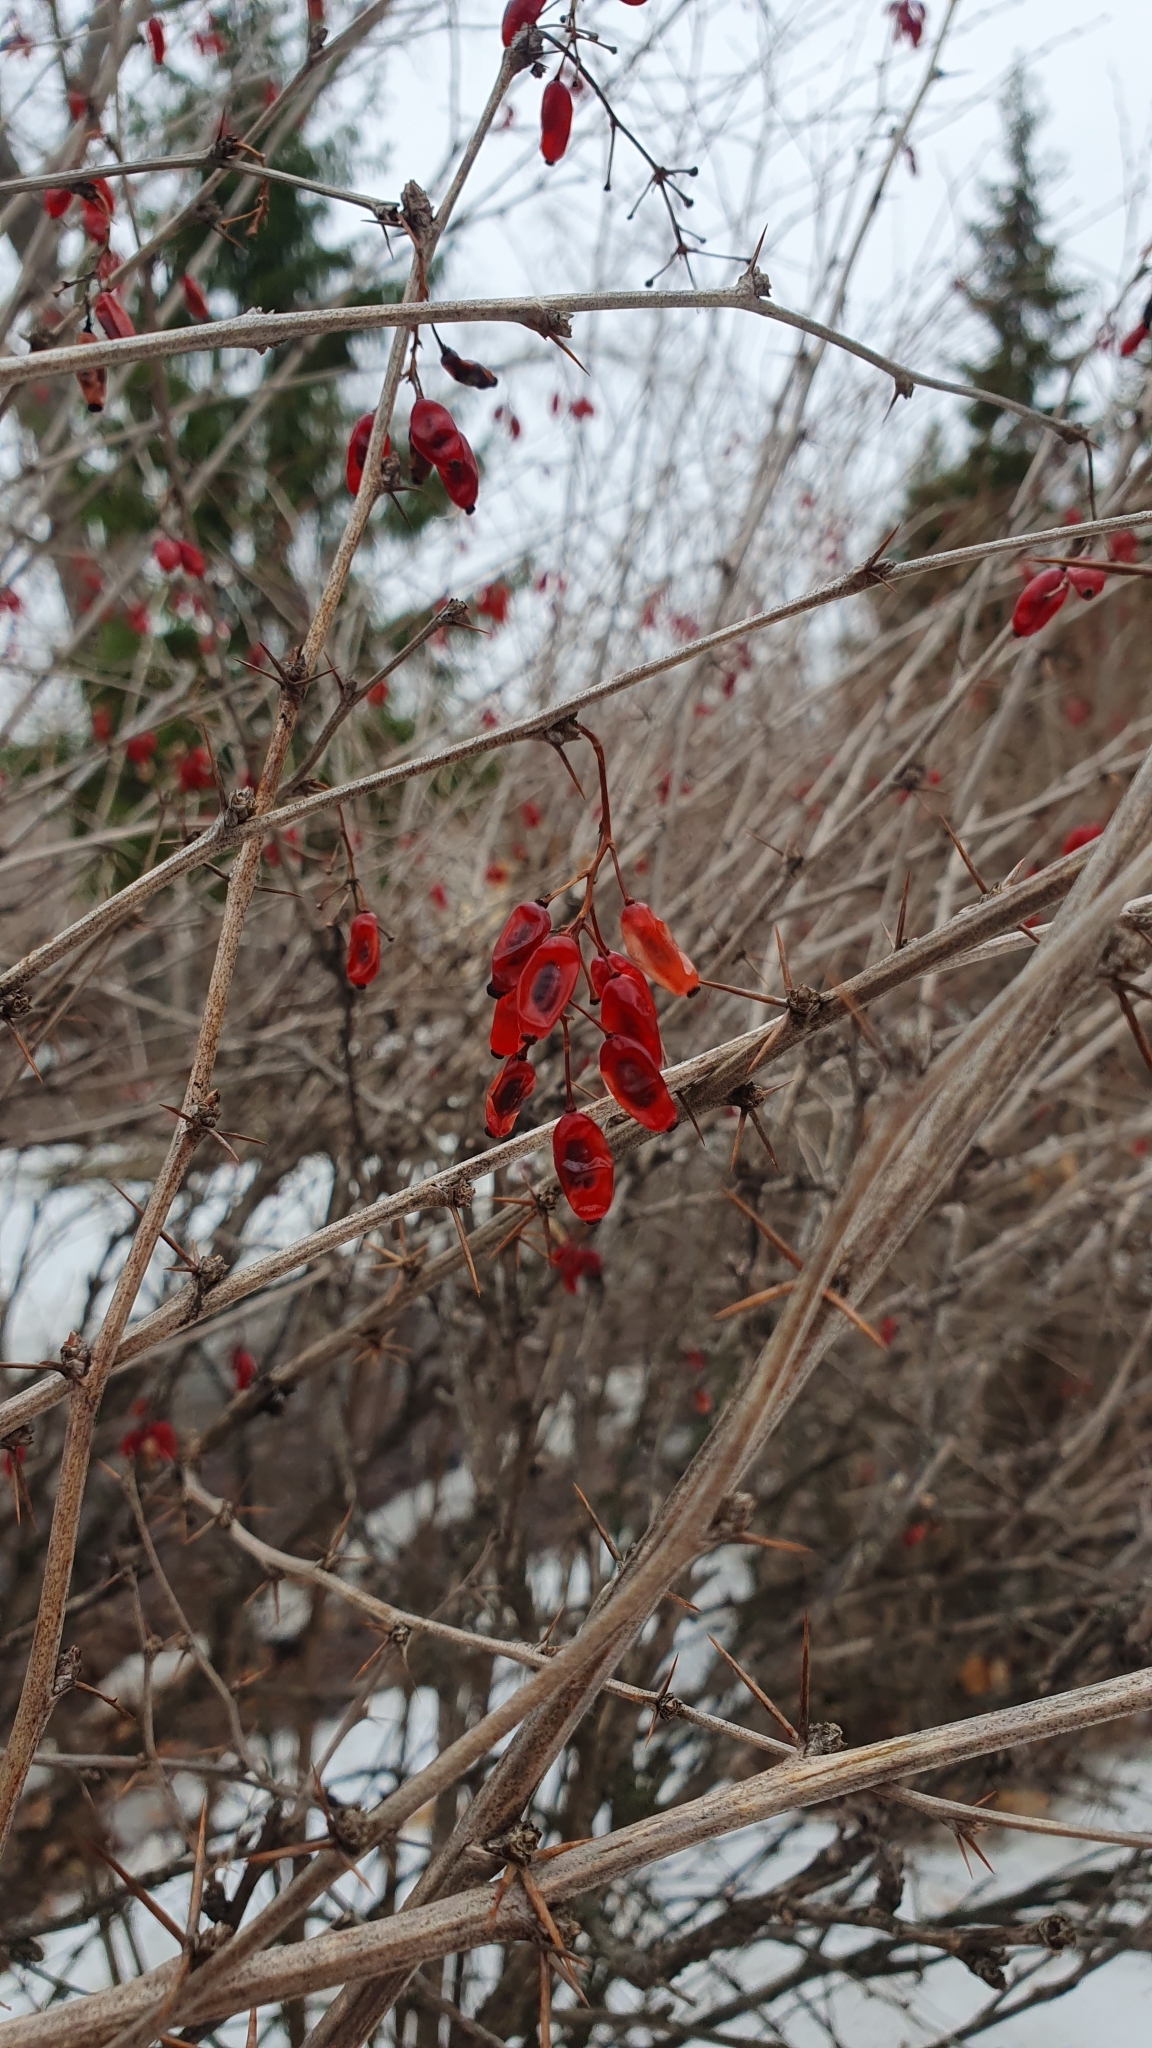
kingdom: Plantae
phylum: Tracheophyta
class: Magnoliopsida
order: Ranunculales
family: Berberidaceae
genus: Berberis
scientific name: Berberis vulgaris
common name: Barberry
